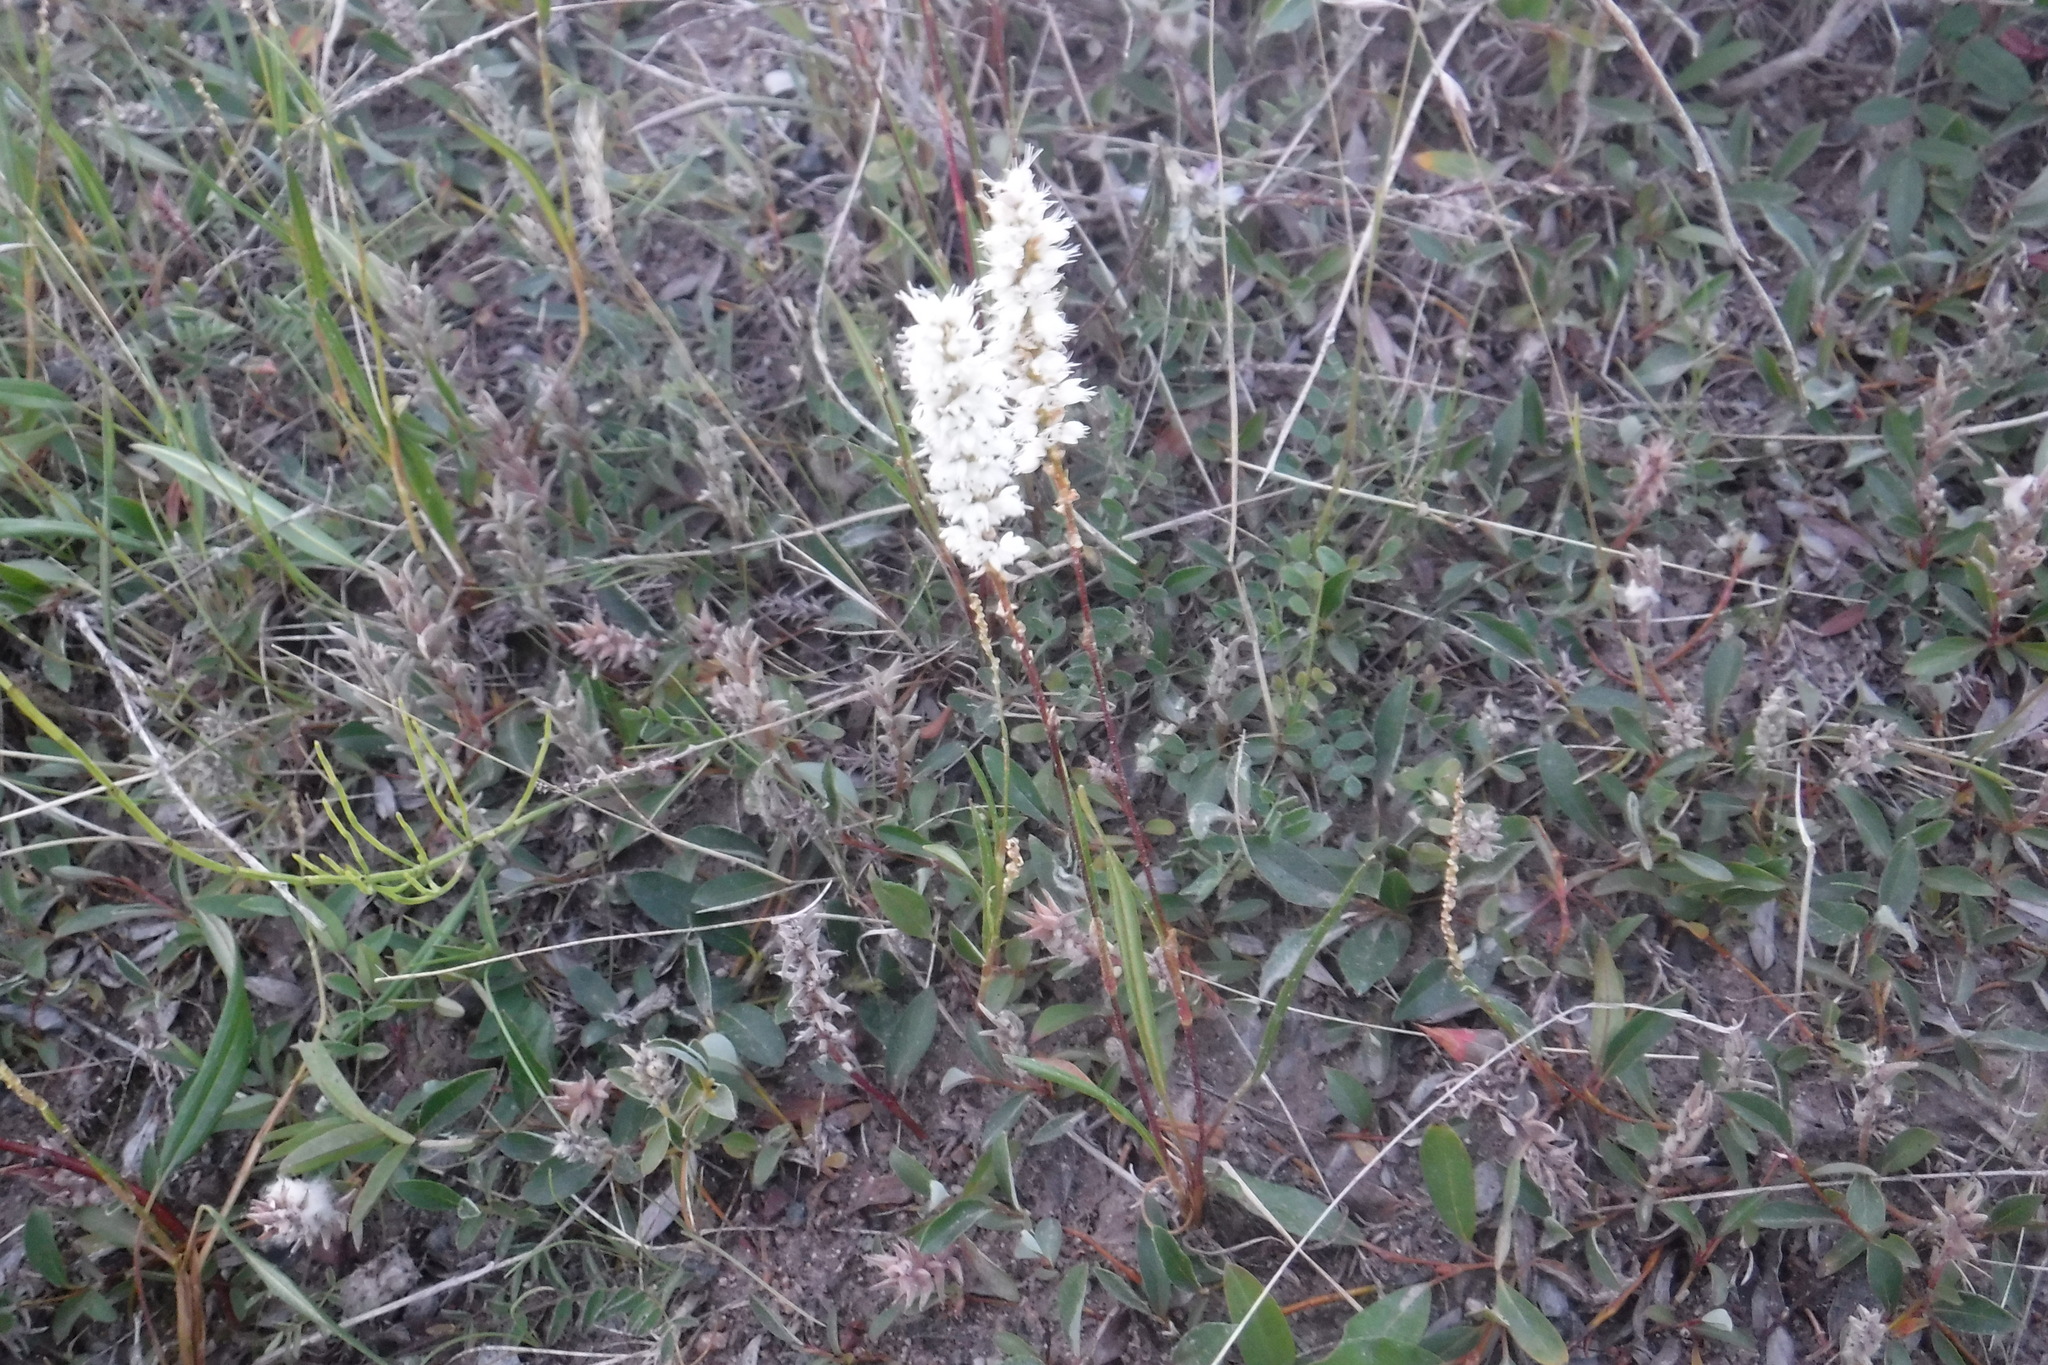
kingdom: Plantae
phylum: Tracheophyta
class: Magnoliopsida
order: Caryophyllales
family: Polygonaceae
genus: Bistorta
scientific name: Bistorta vivipara
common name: Alpine bistort
